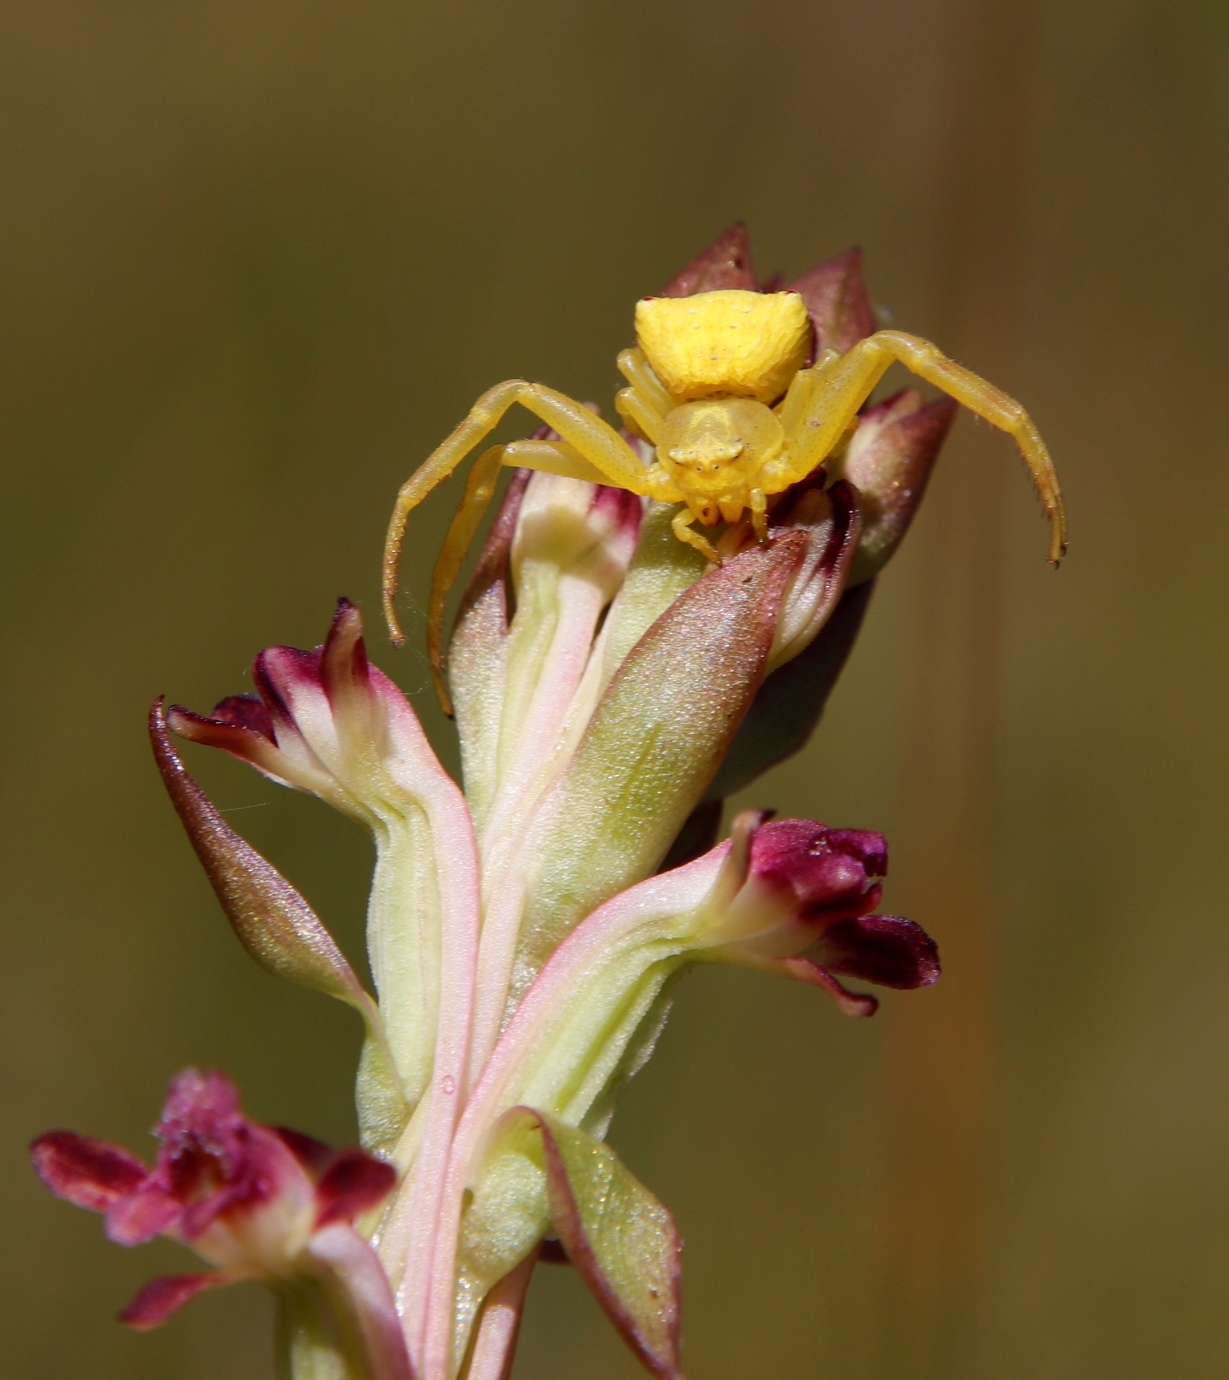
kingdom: Plantae
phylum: Tracheophyta
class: Liliopsida
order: Asparagales
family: Orchidaceae
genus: Satyrium
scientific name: Satyrium longicauda
